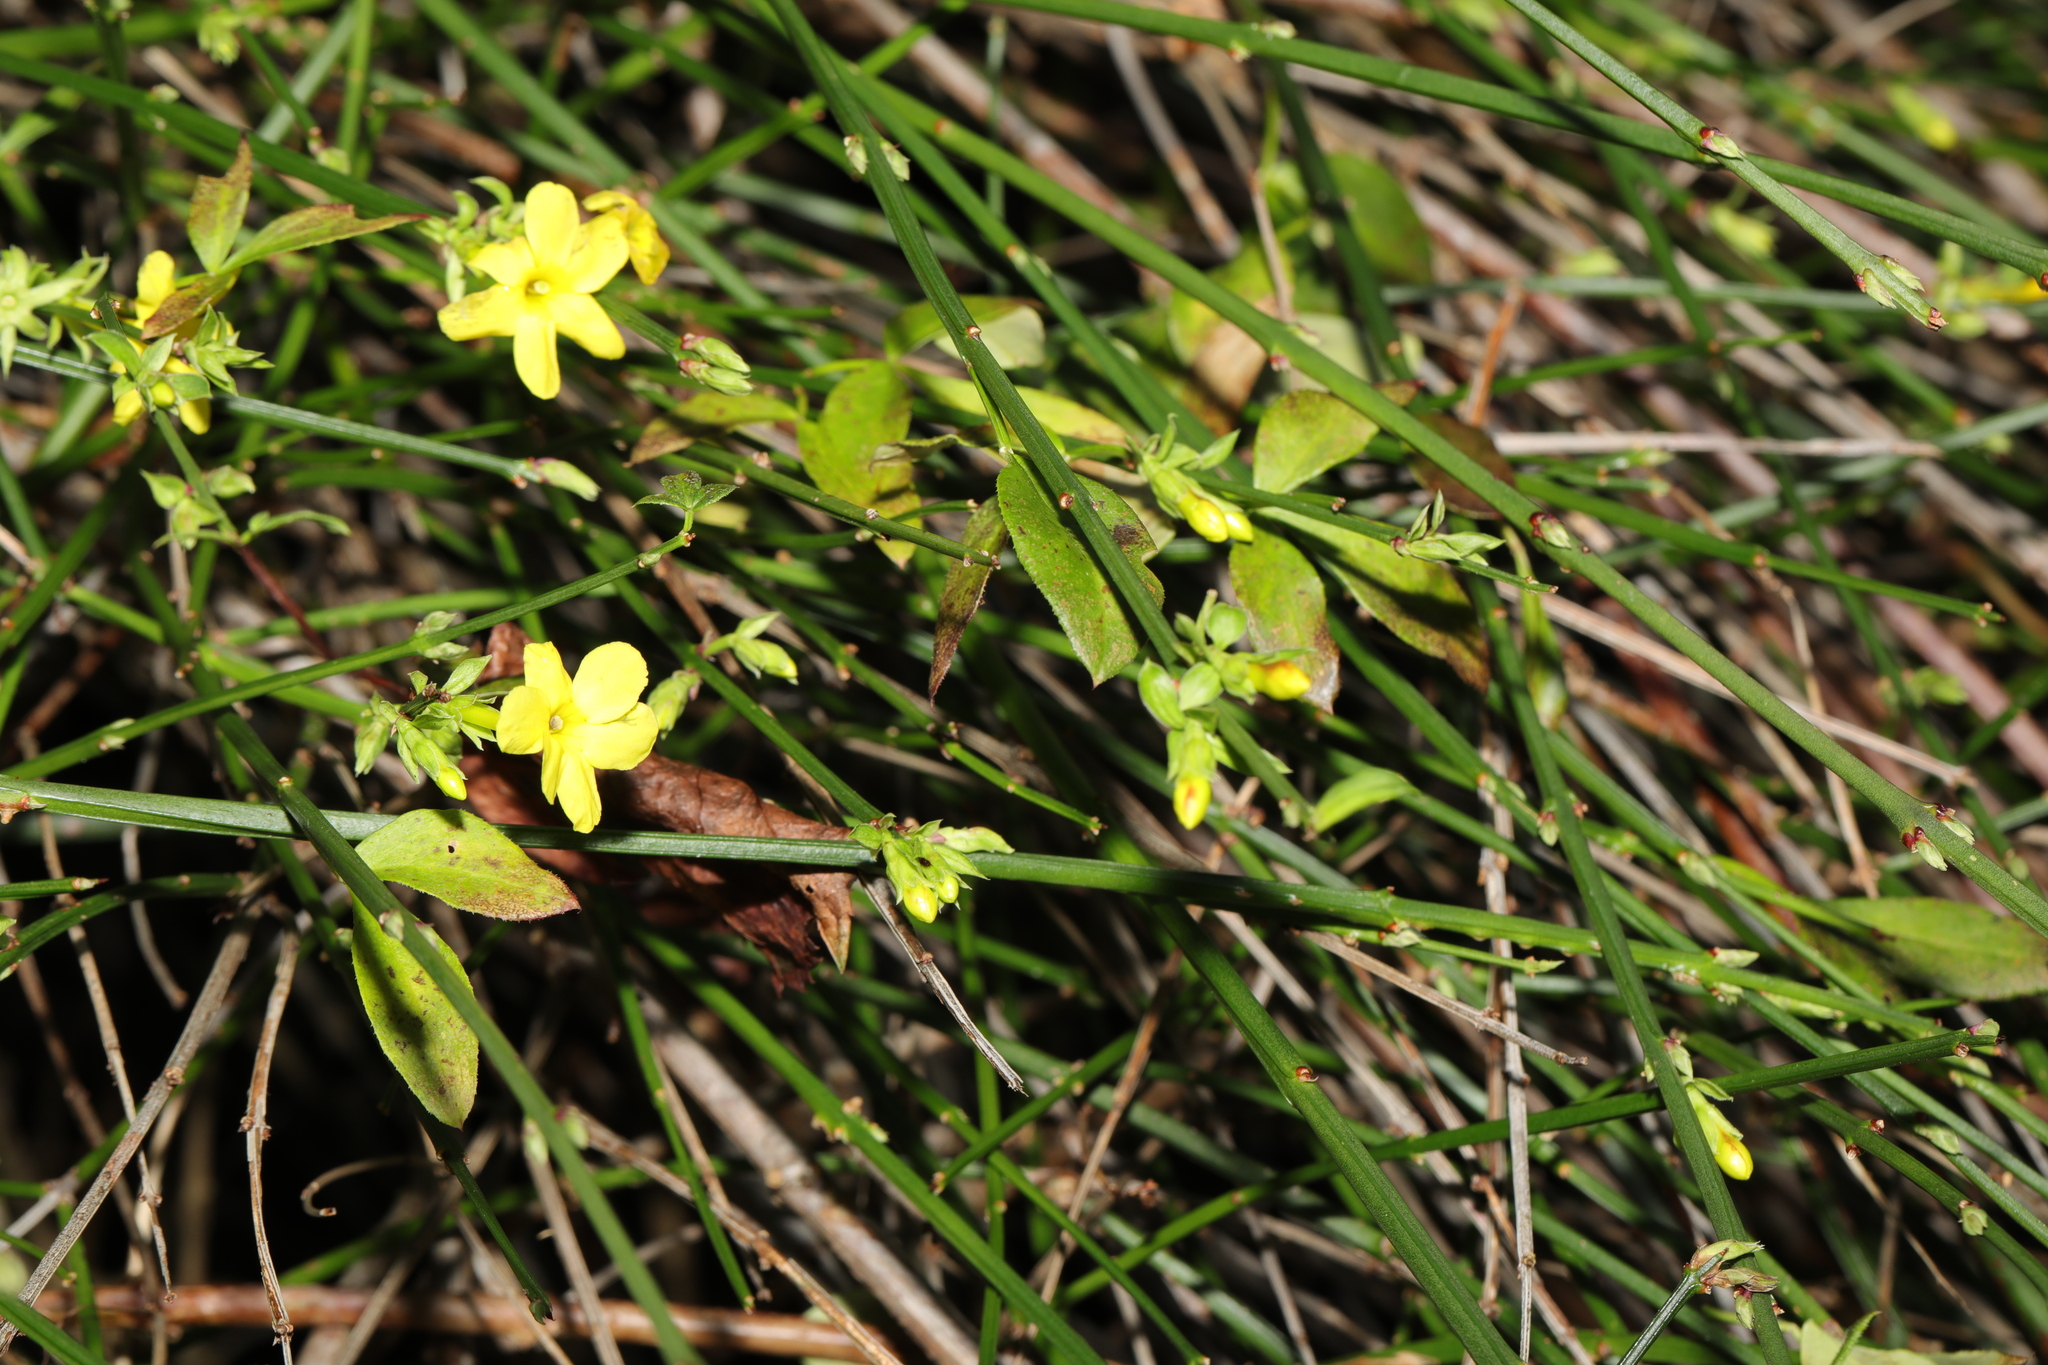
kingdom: Plantae
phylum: Tracheophyta
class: Magnoliopsida
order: Lamiales
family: Oleaceae
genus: Jasminum
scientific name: Jasminum nudiflorum
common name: Winter jasmine
